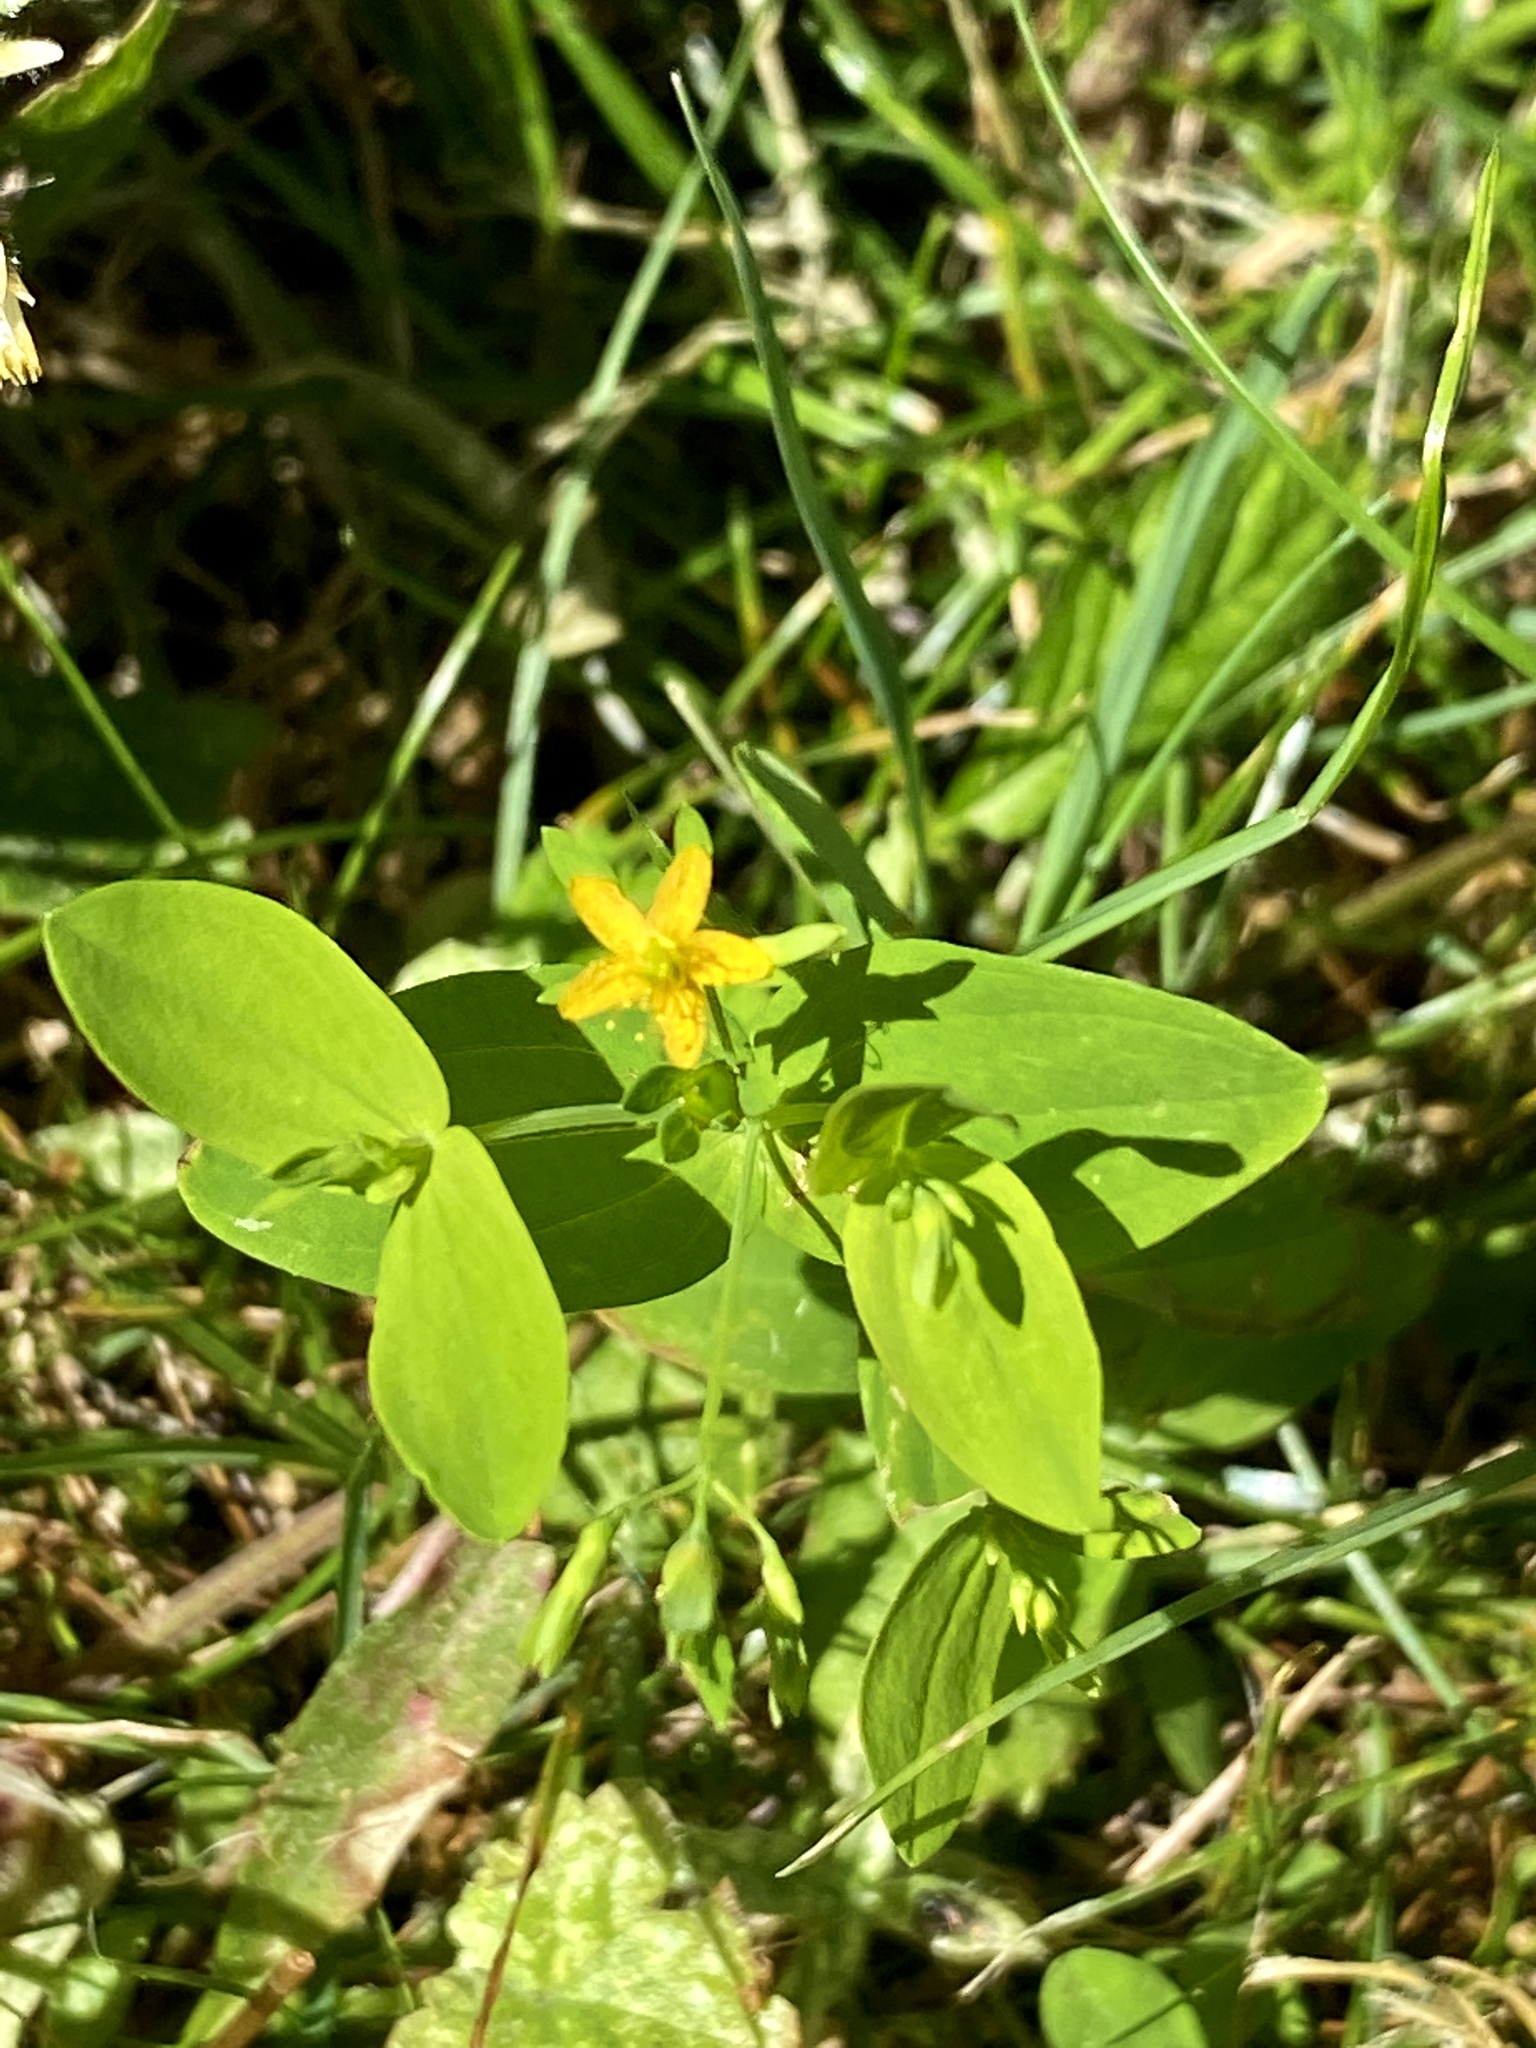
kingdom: Plantae
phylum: Tracheophyta
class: Magnoliopsida
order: Malpighiales
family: Hypericaceae
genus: Hypericum
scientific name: Hypericum mutilum
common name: Dwarf st. john's-wort
